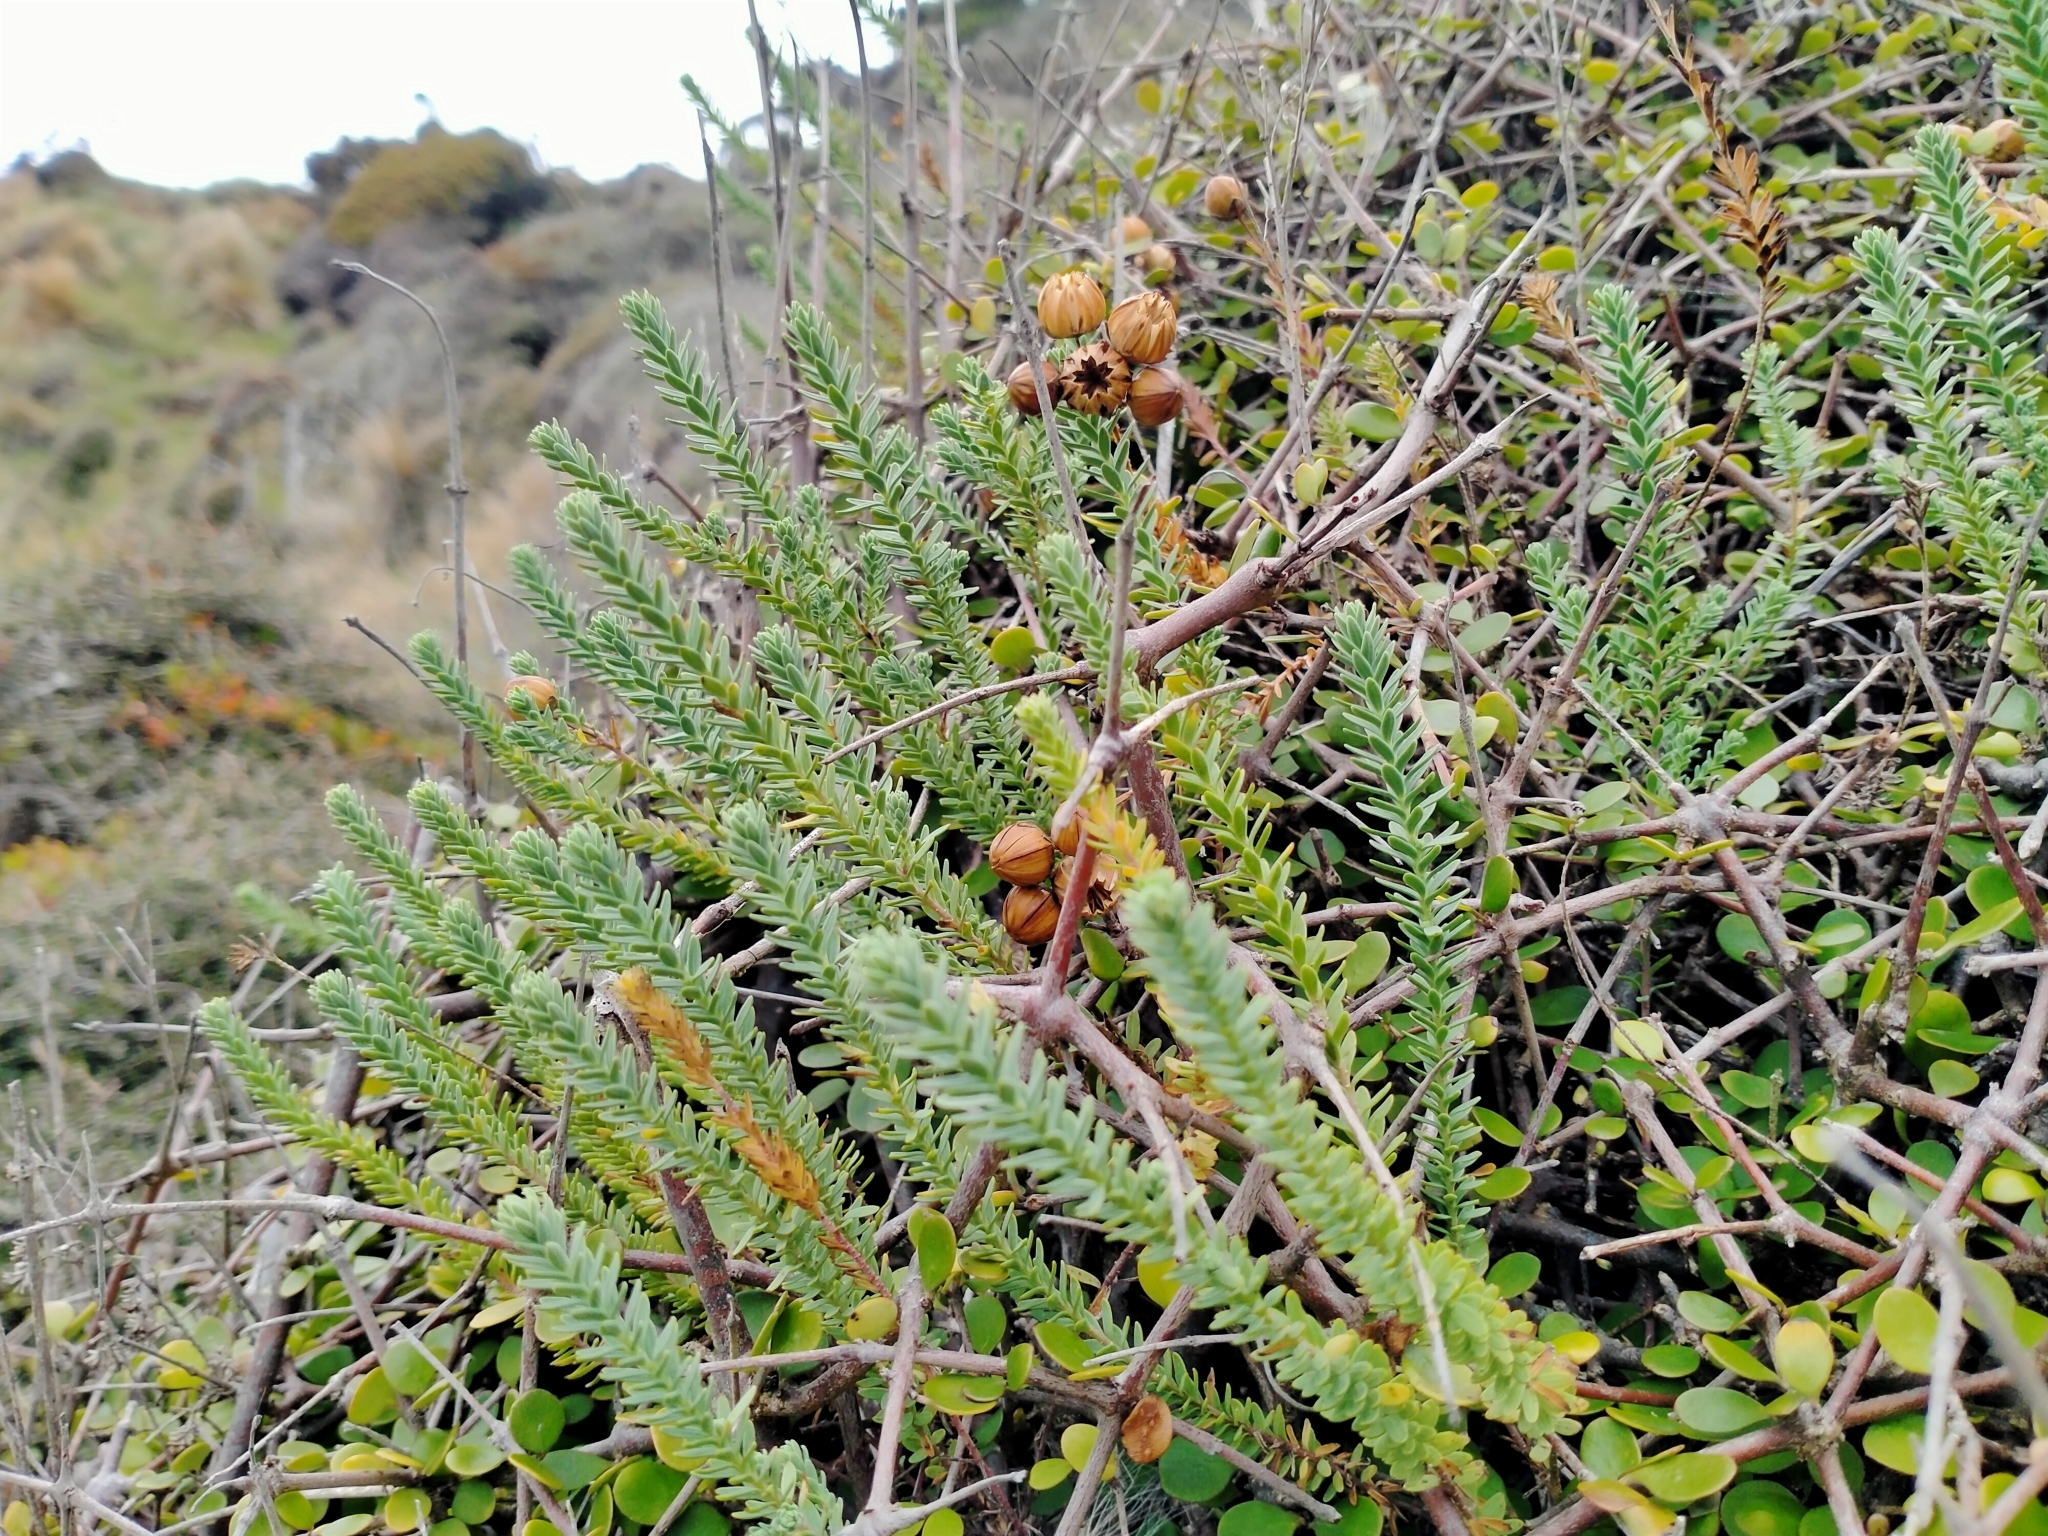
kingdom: Plantae
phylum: Tracheophyta
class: Magnoliopsida
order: Malpighiales
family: Linaceae
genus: Linum
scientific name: Linum monogynum
